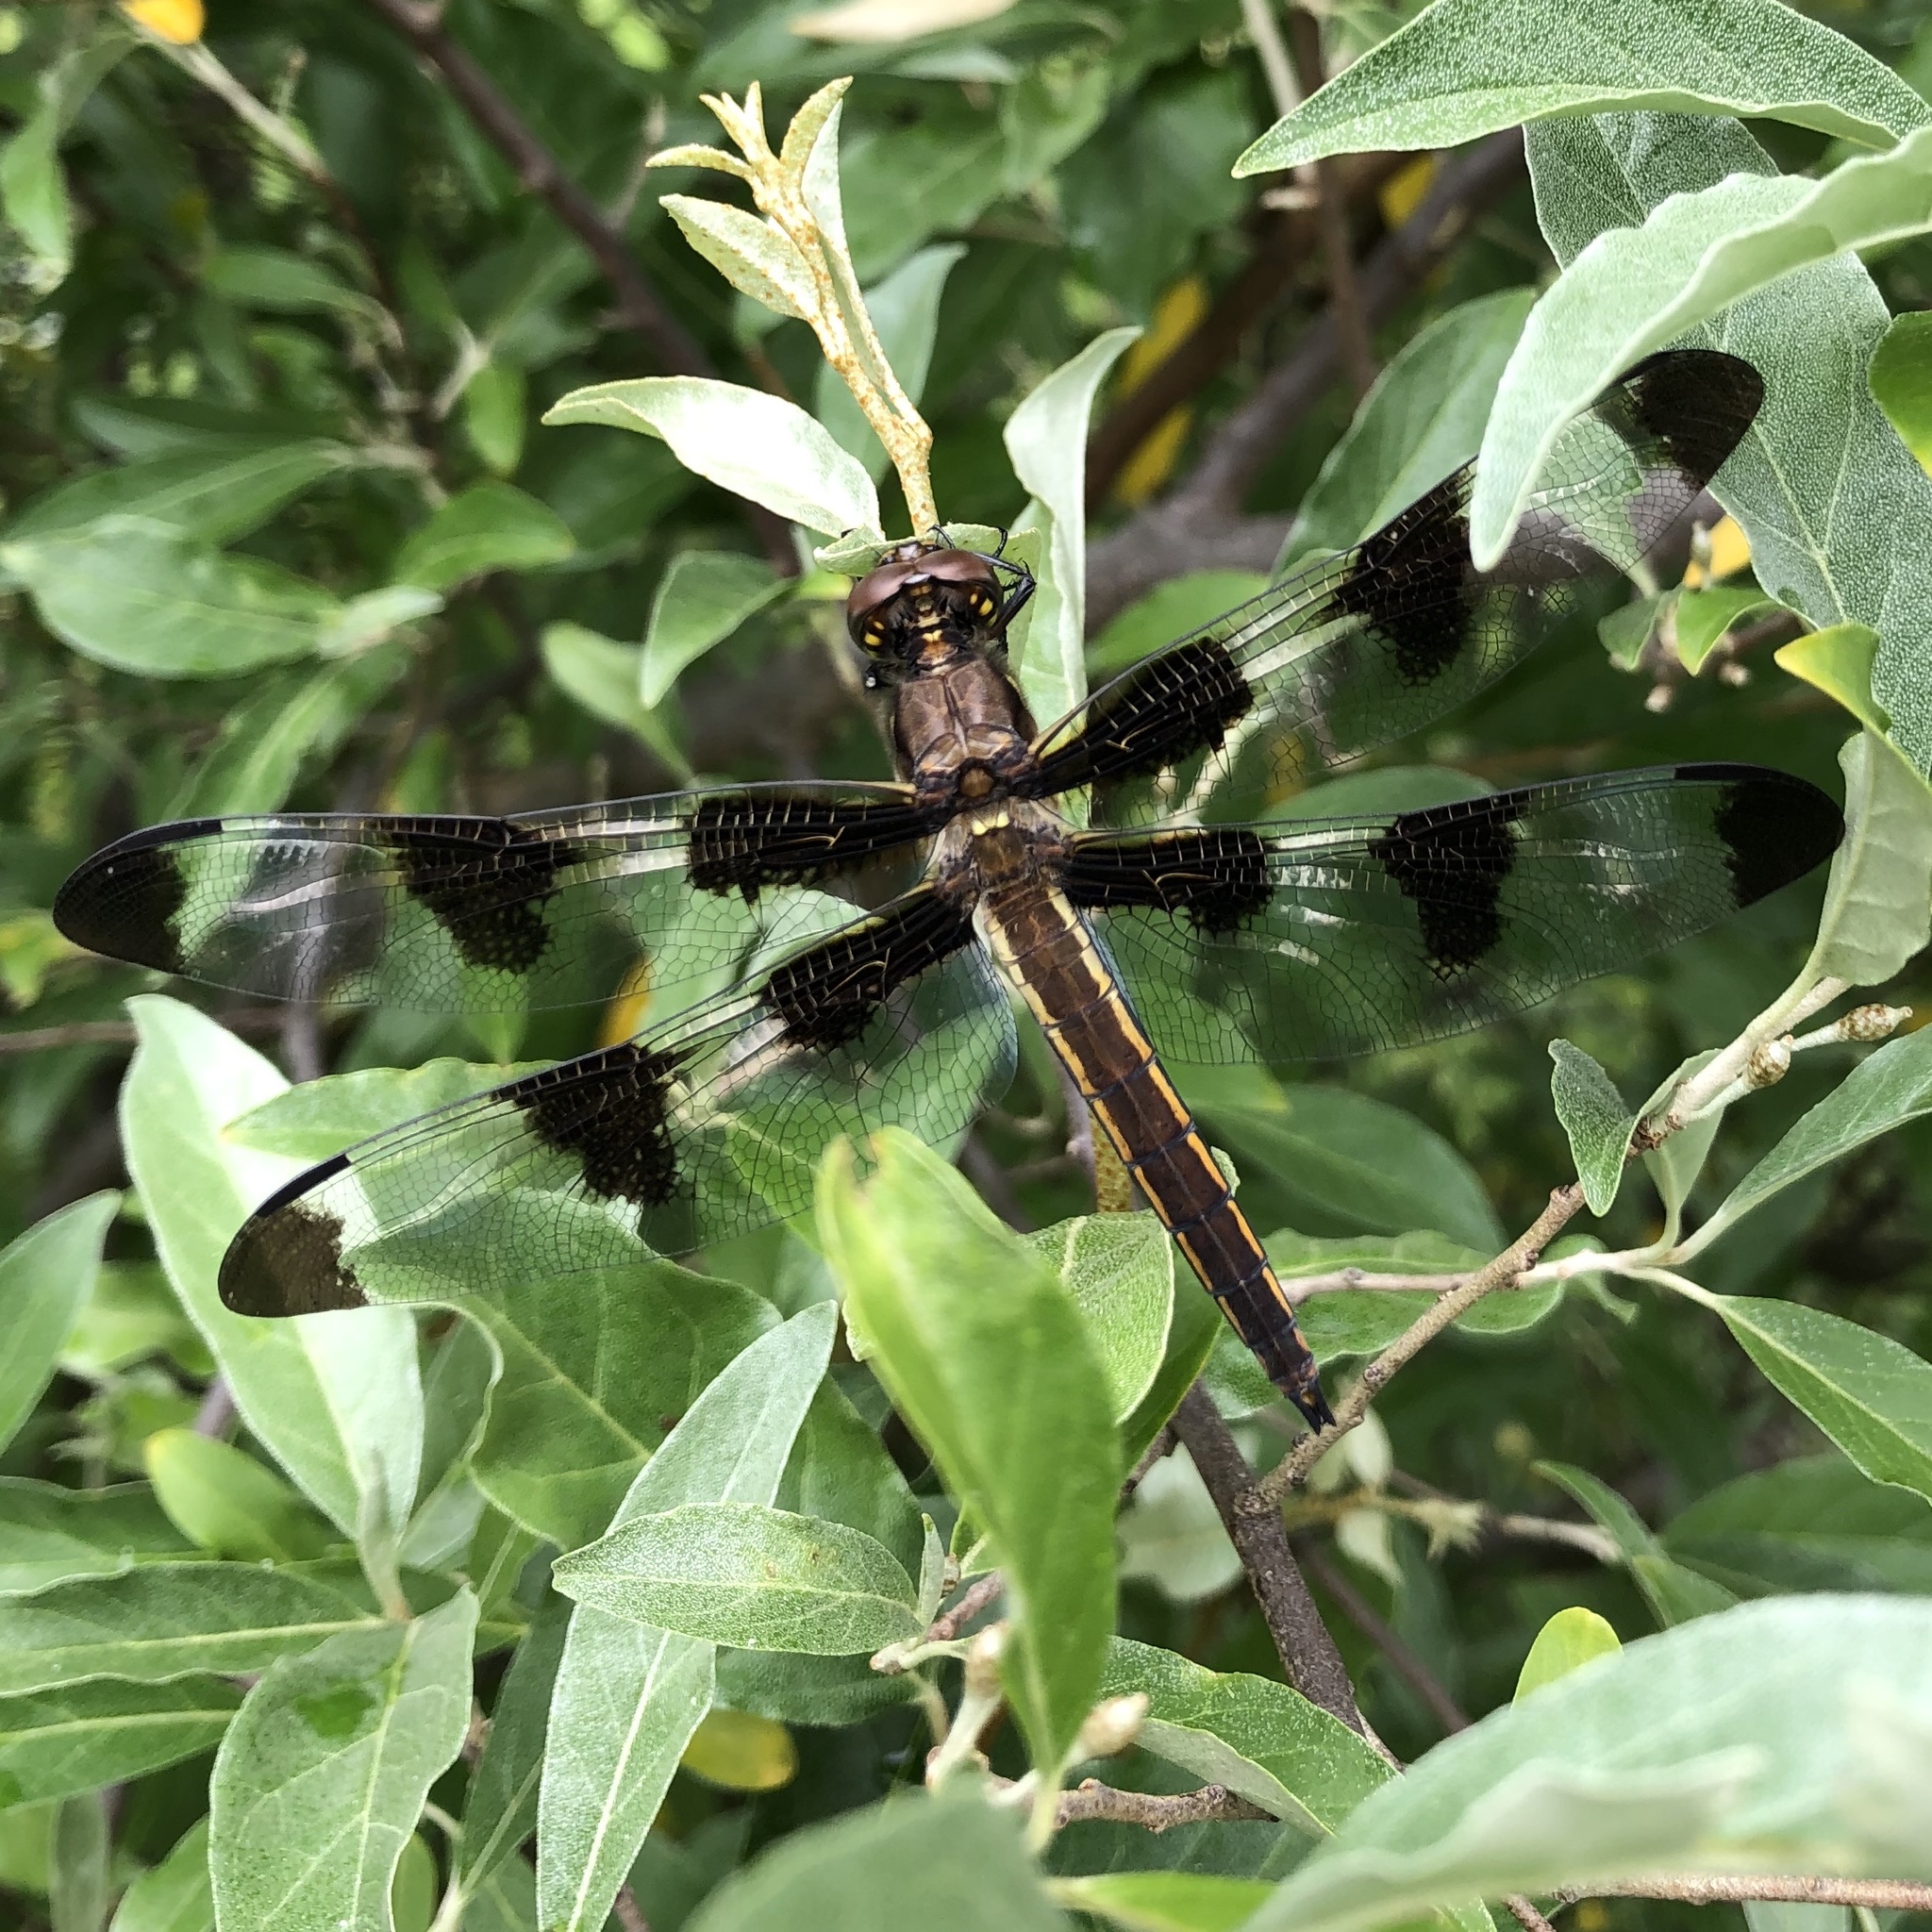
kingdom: Animalia
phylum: Arthropoda
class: Insecta
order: Odonata
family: Libellulidae
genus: Libellula
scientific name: Libellula pulchella
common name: Twelve-spotted skimmer
